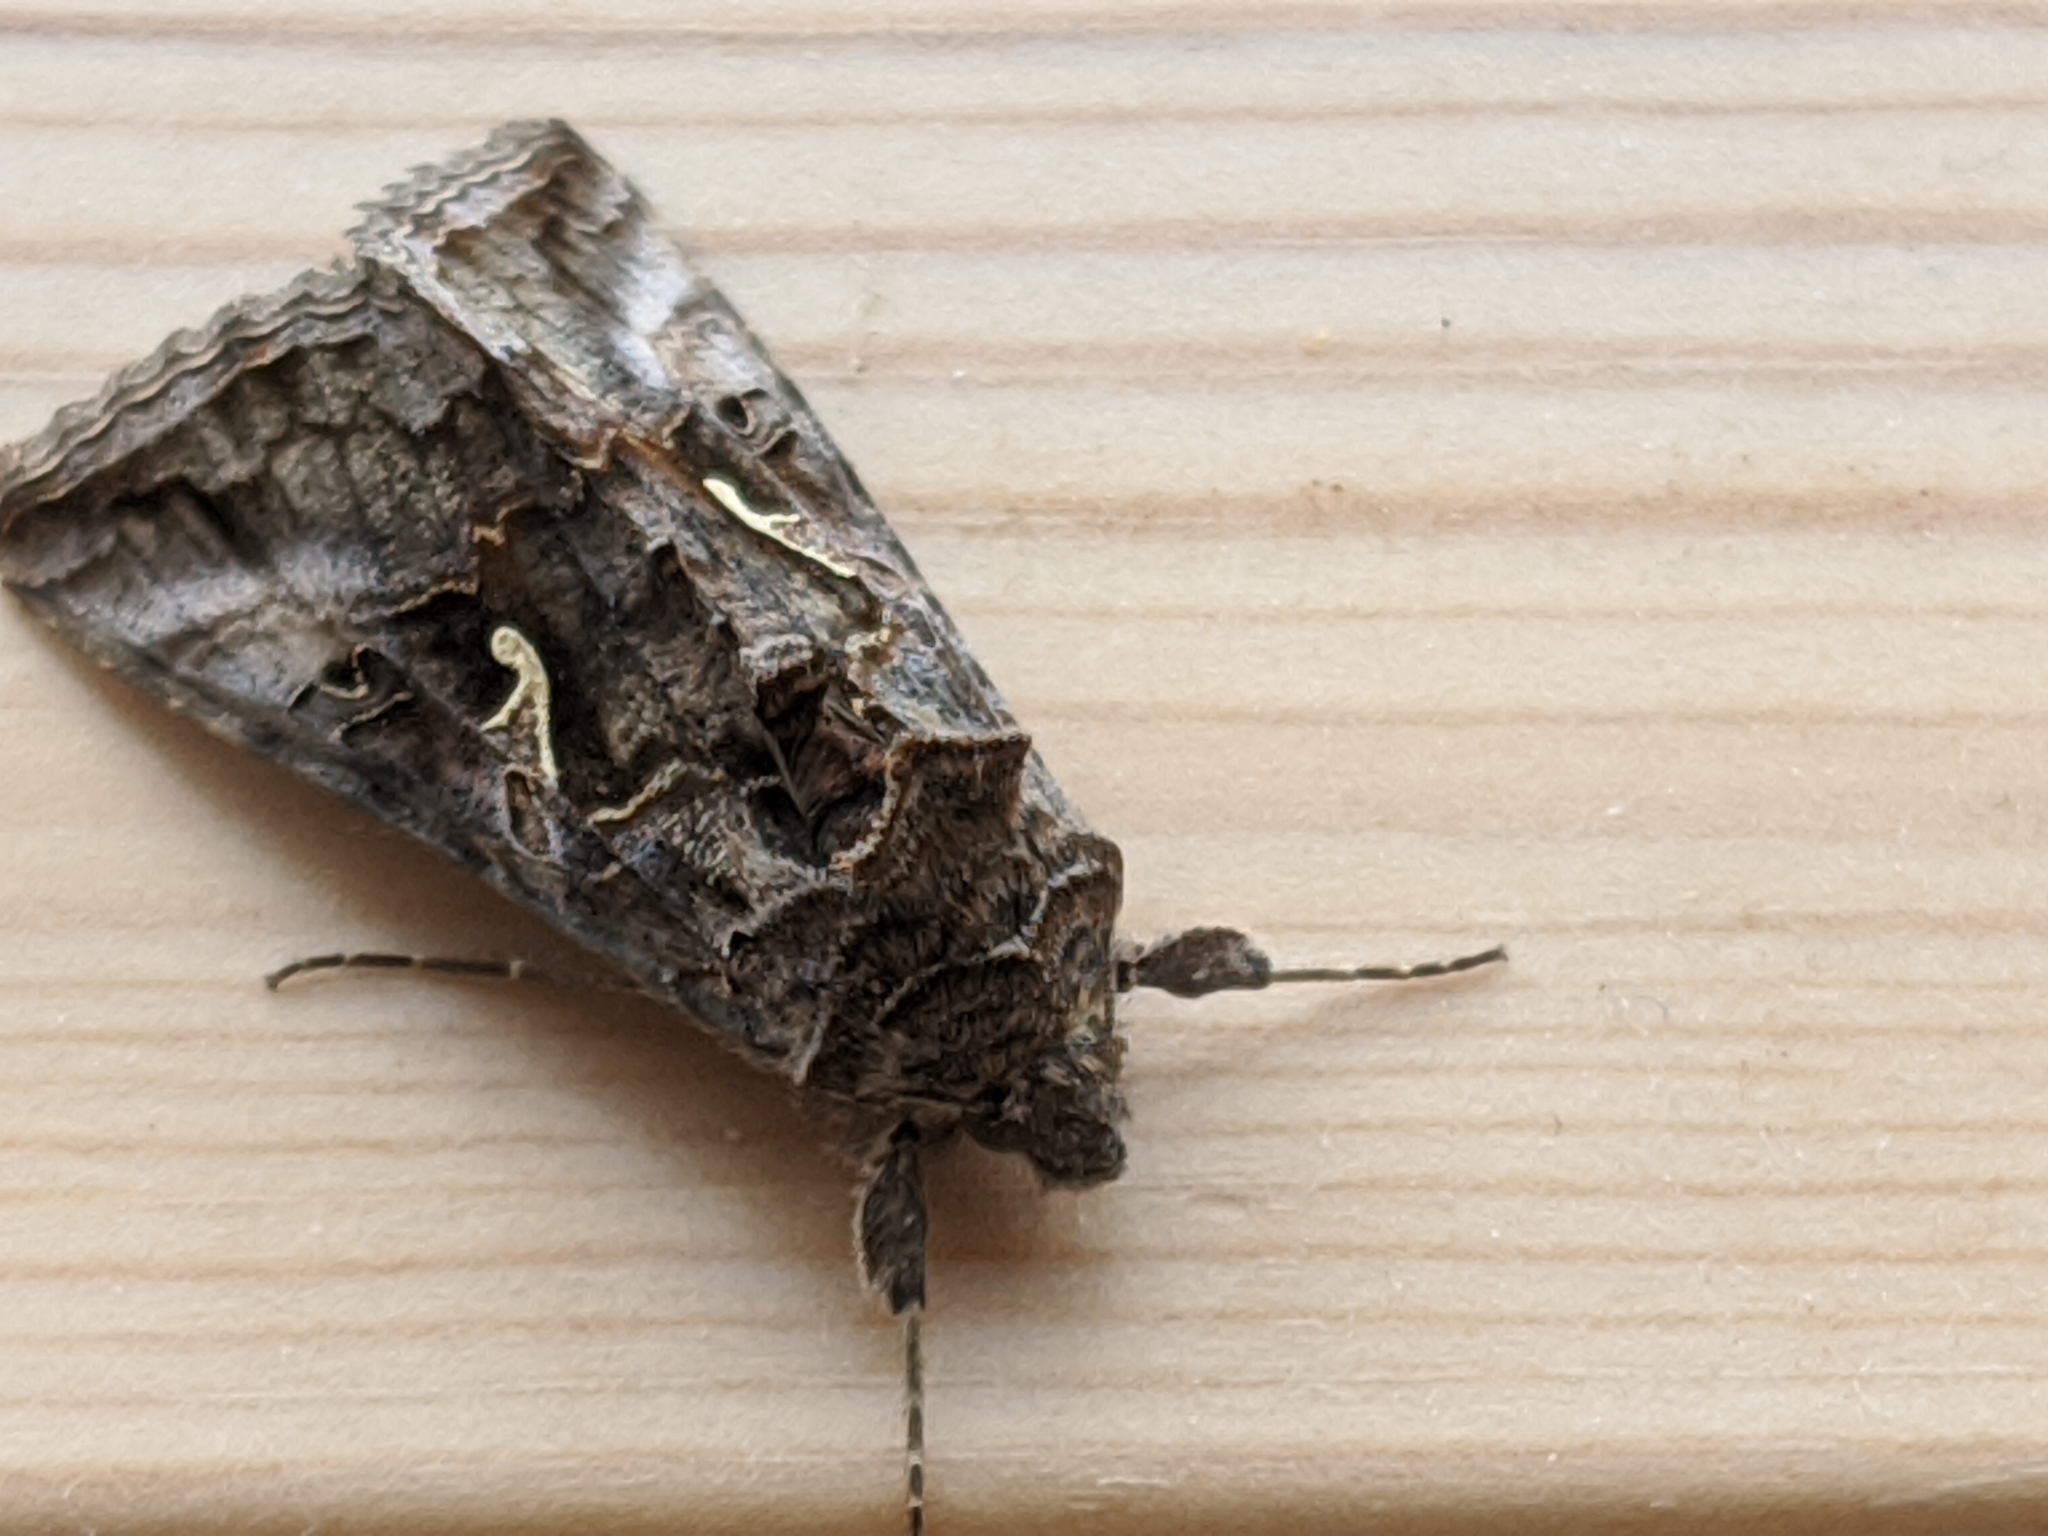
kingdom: Animalia
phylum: Arthropoda
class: Insecta
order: Lepidoptera
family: Noctuidae
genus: Autographa
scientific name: Autographa gamma
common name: Silver y
